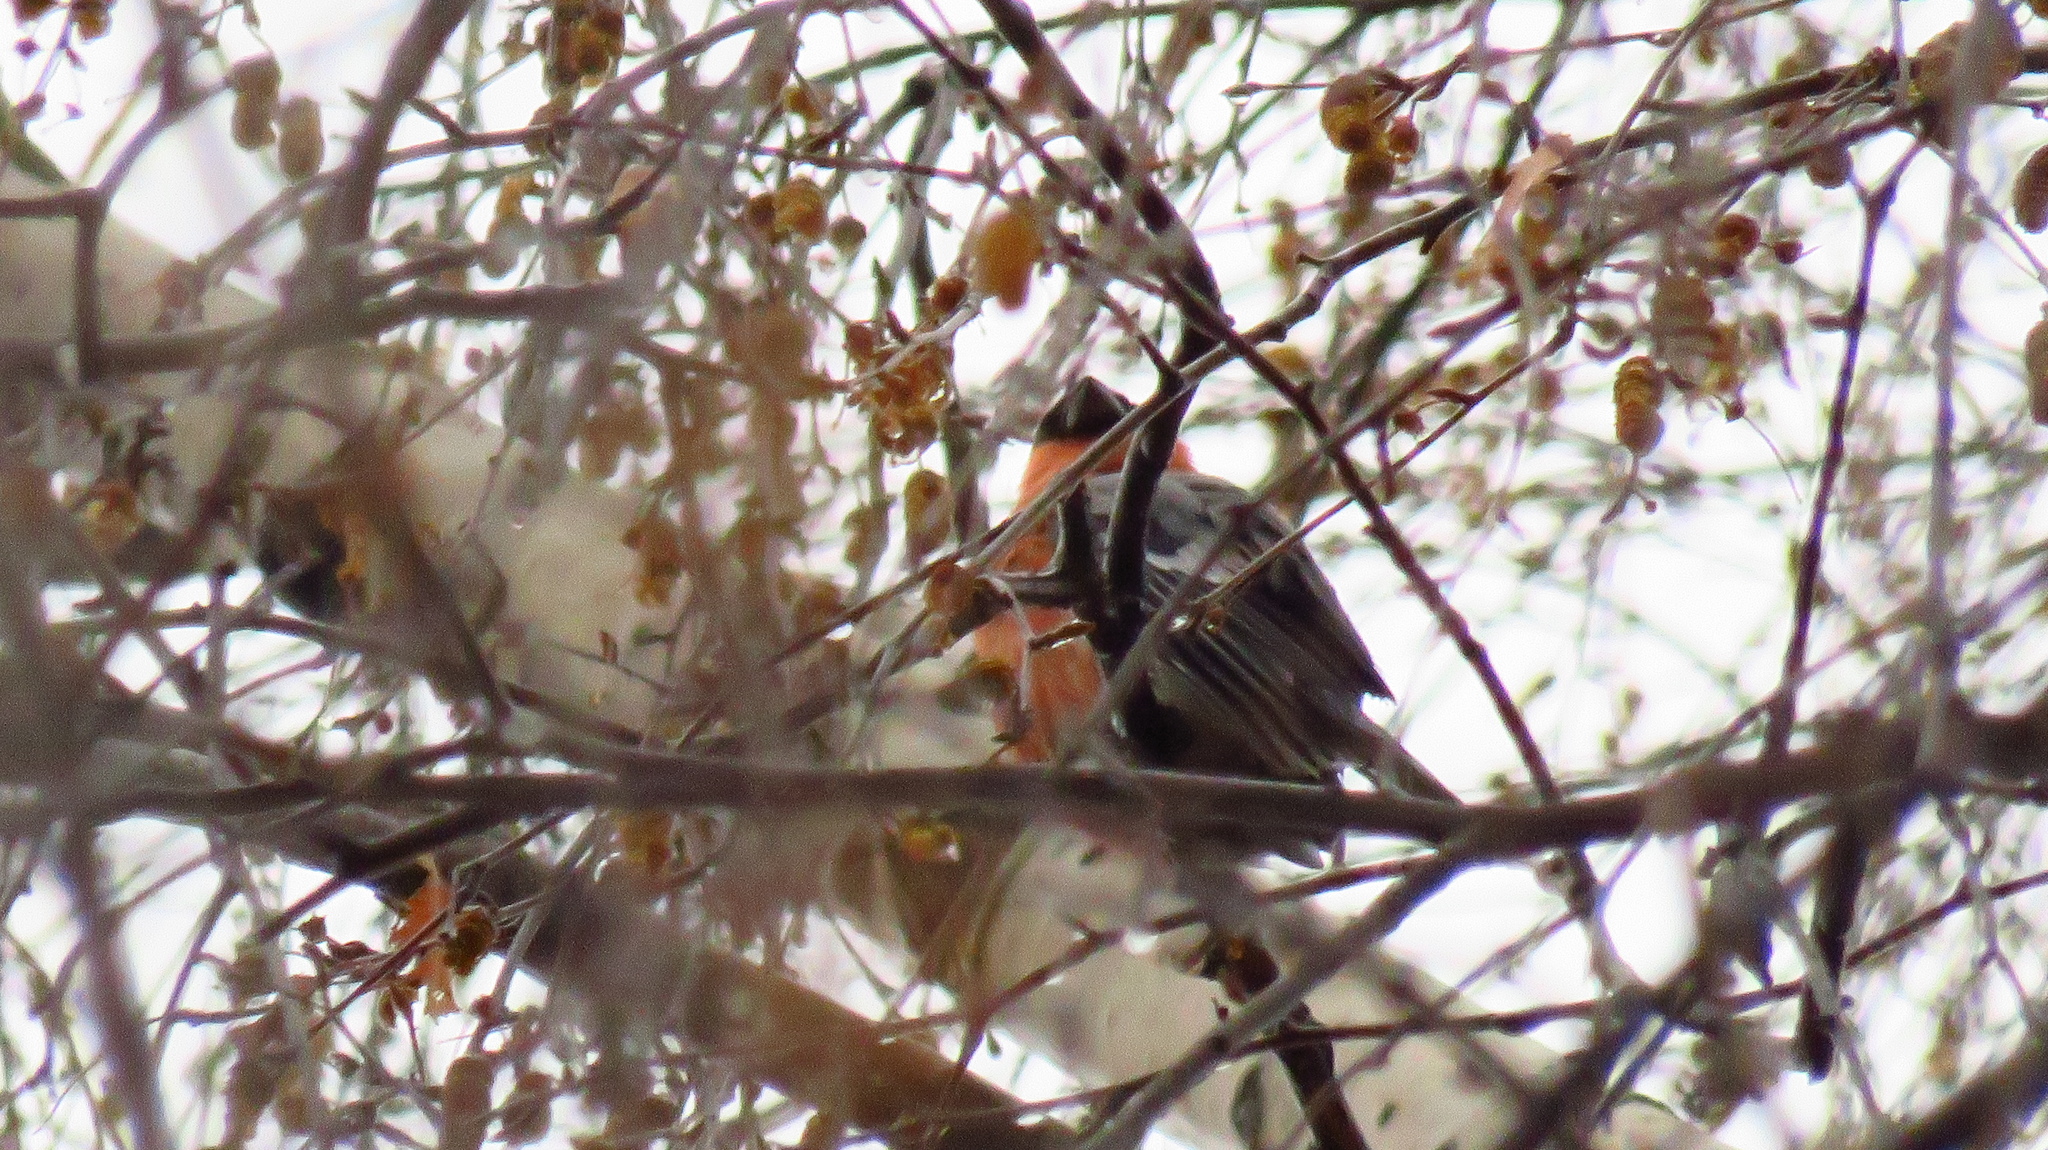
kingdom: Animalia
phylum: Chordata
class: Aves
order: Passeriformes
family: Fringillidae
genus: Pyrrhula
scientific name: Pyrrhula pyrrhula
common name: Eurasian bullfinch
